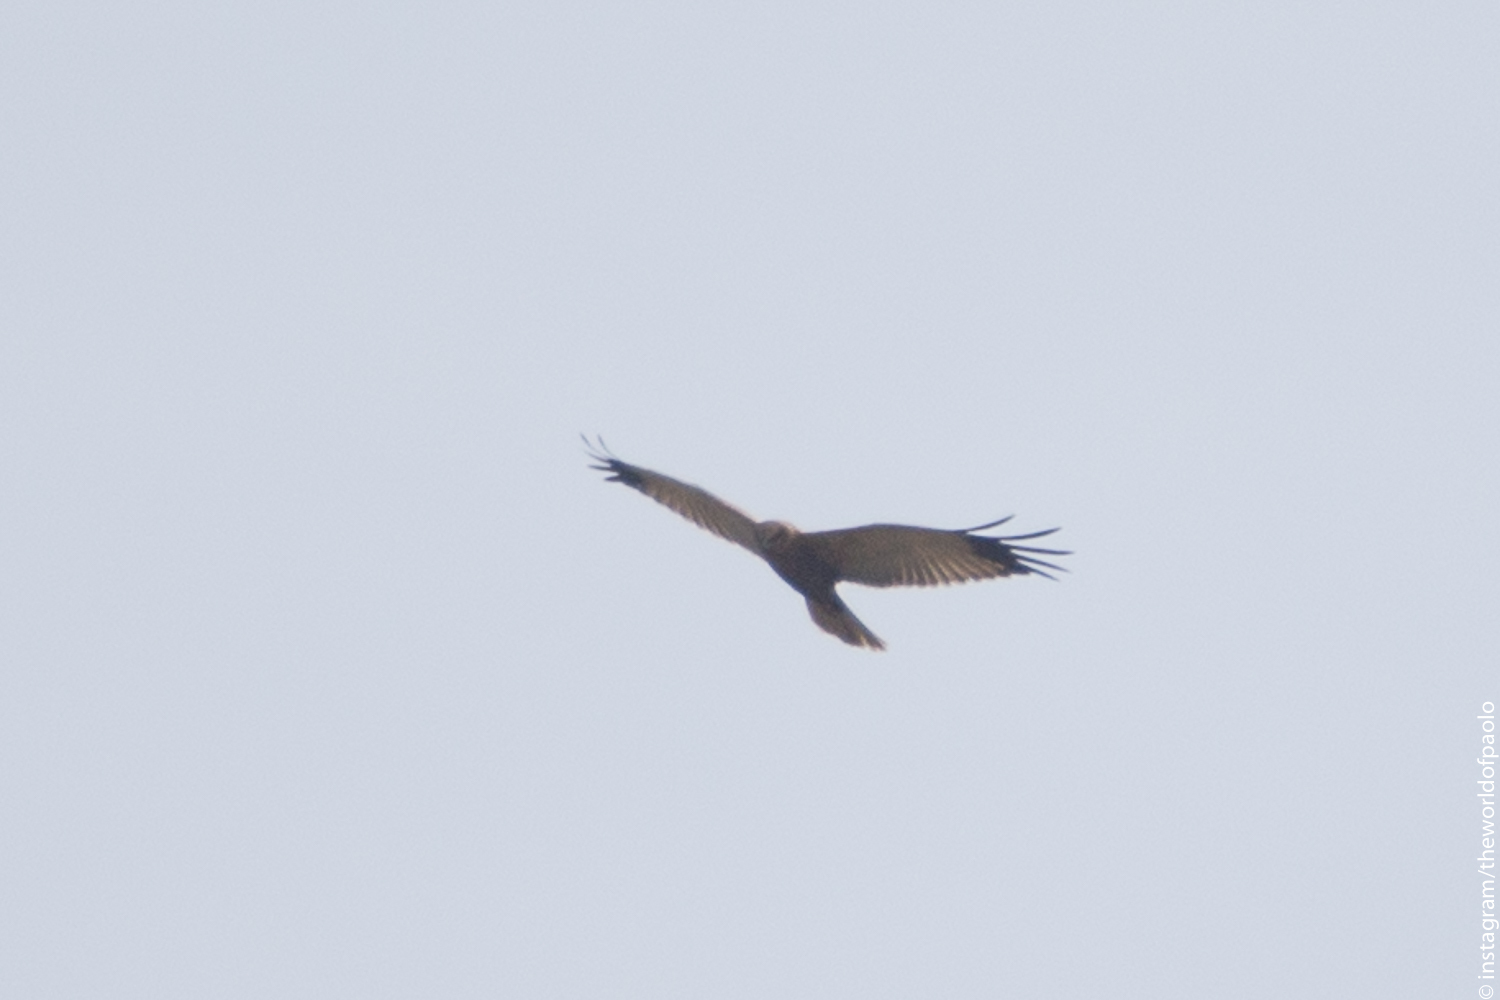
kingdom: Animalia
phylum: Chordata
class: Aves
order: Accipitriformes
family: Accipitridae
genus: Circus
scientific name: Circus aeruginosus
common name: Western marsh harrier
